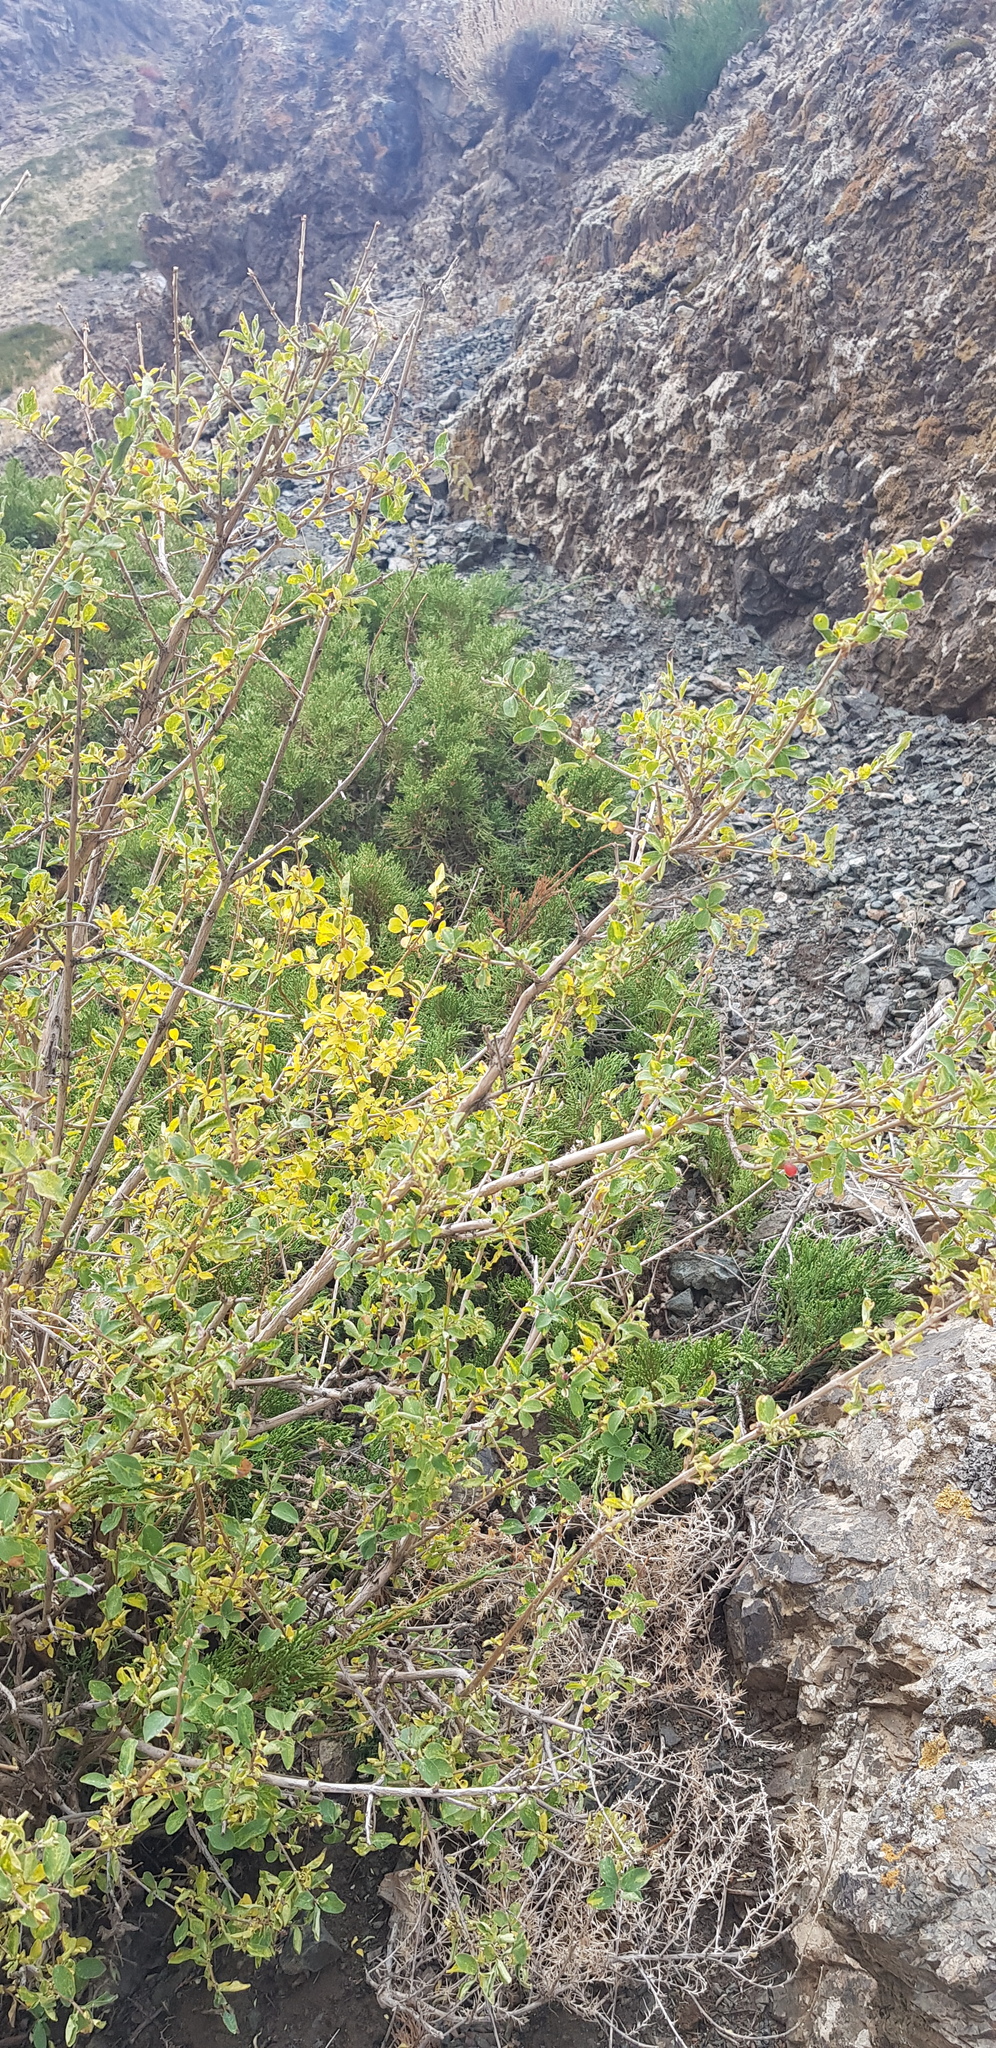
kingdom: Plantae
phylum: Tracheophyta
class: Magnoliopsida
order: Dipsacales
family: Caprifoliaceae
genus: Lonicera
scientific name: Lonicera microphylla
